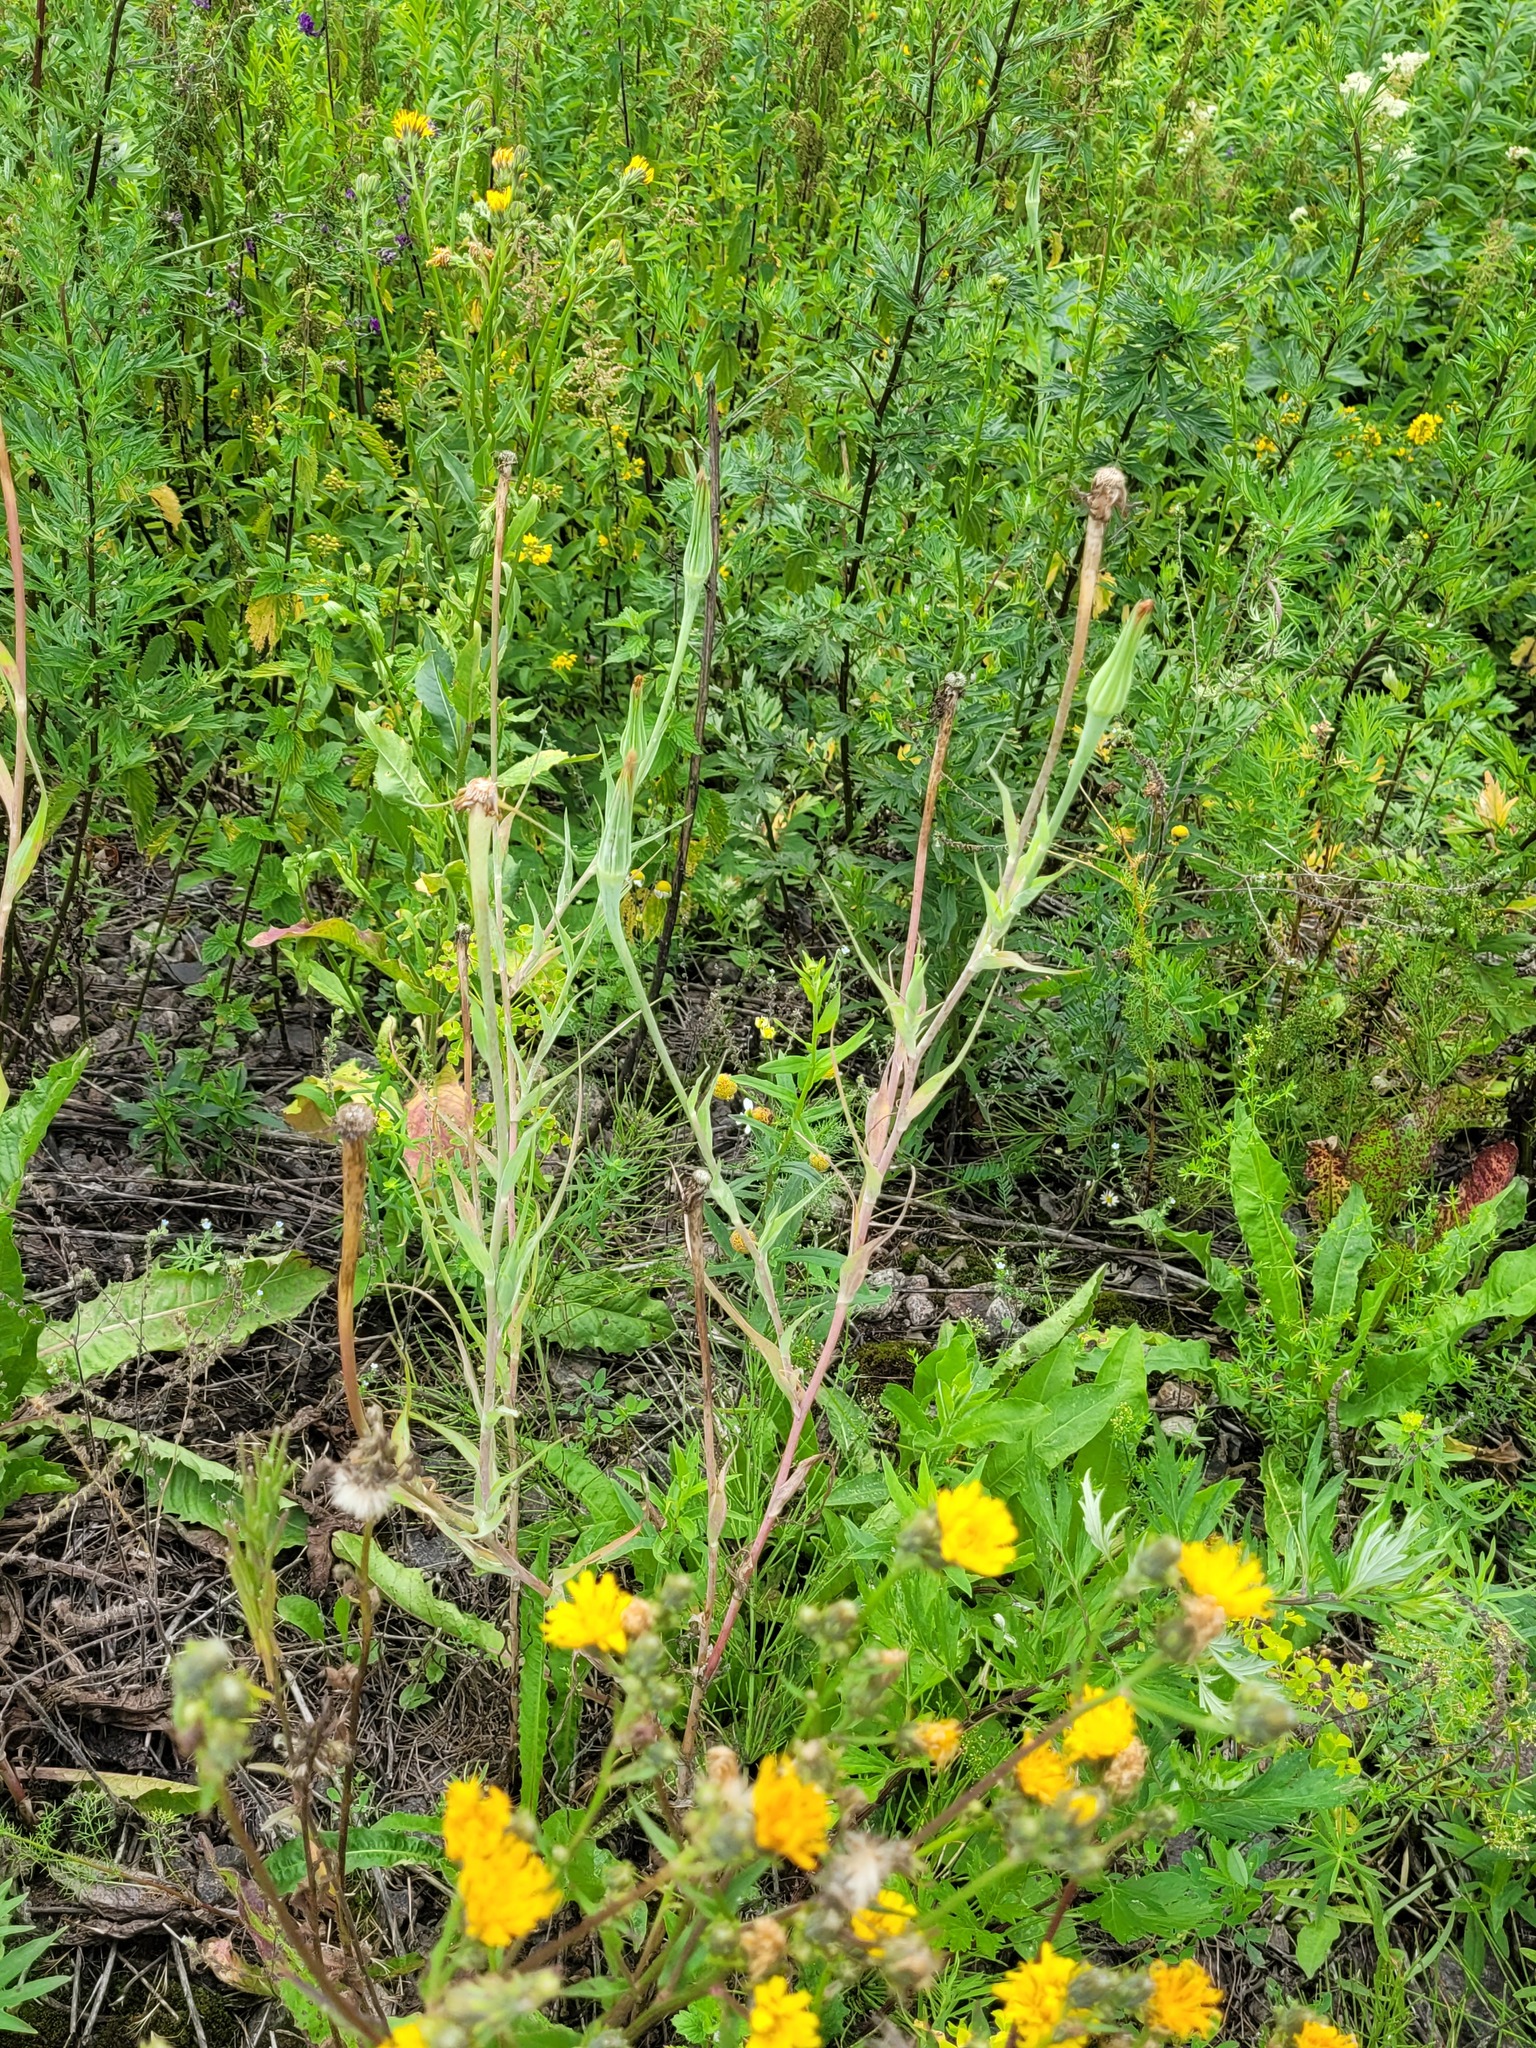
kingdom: Plantae
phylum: Tracheophyta
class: Magnoliopsida
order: Asterales
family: Asteraceae
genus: Tragopogon
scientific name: Tragopogon dubius
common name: Yellow salsify
